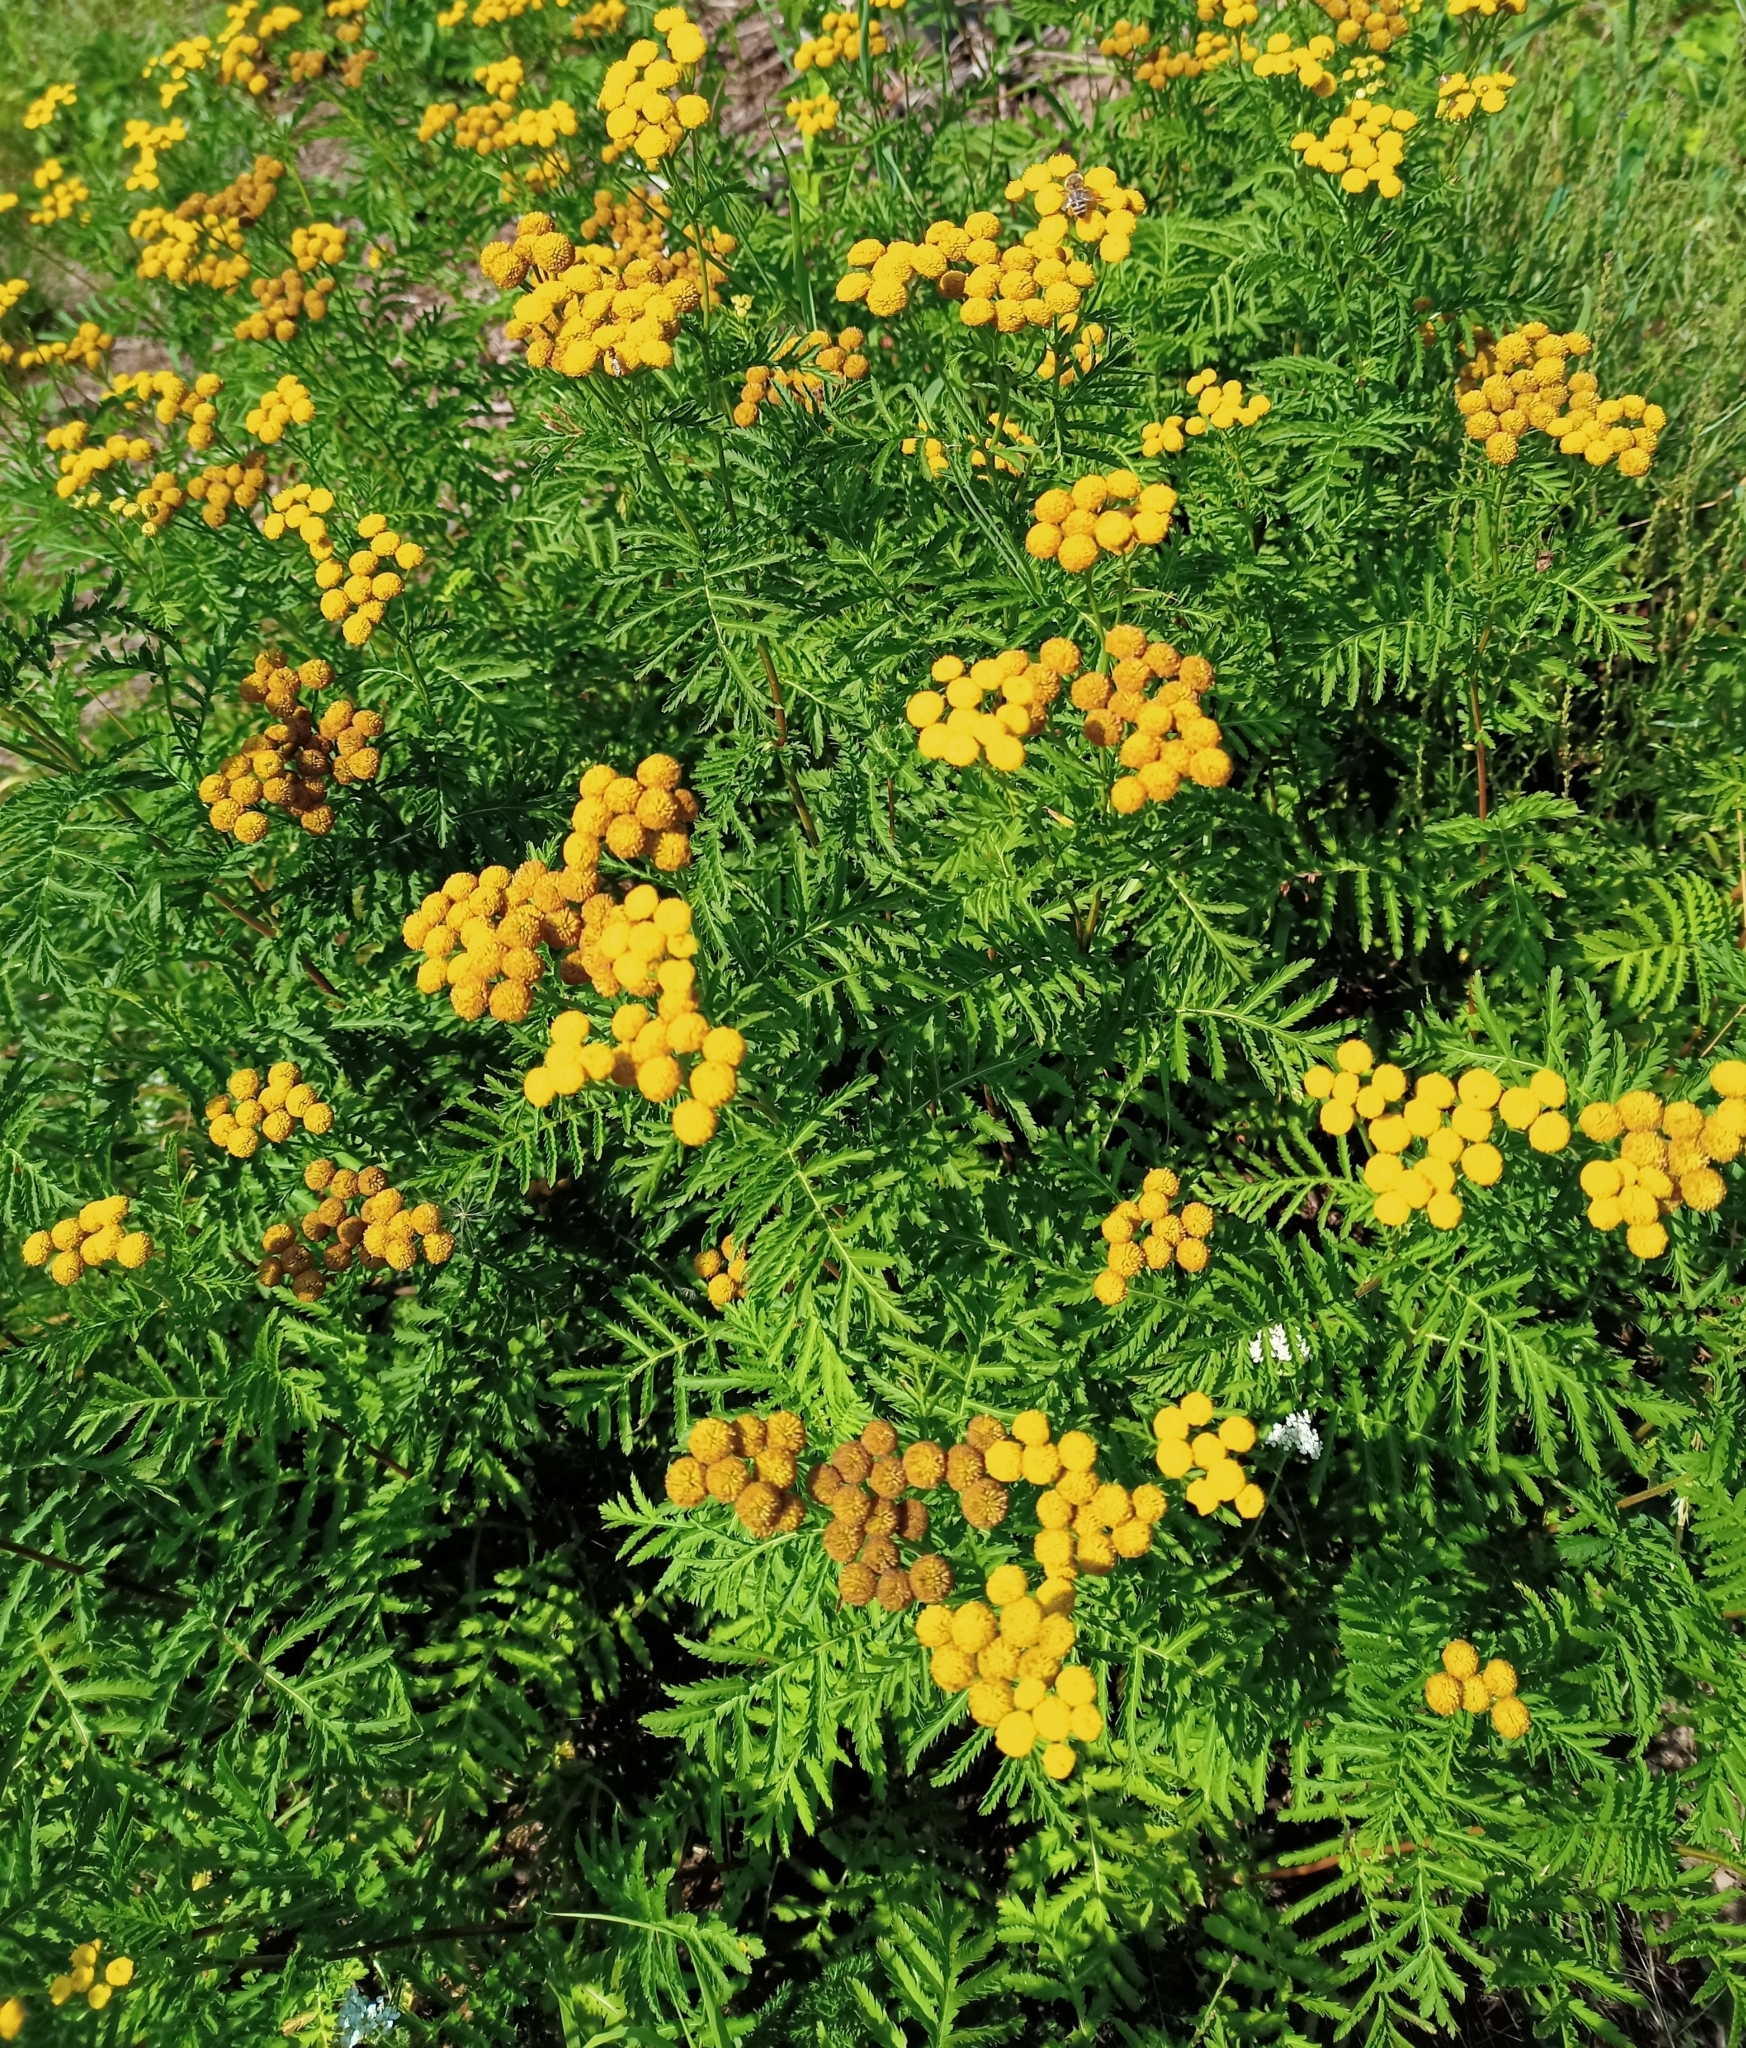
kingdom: Plantae
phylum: Tracheophyta
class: Magnoliopsida
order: Asterales
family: Asteraceae
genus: Tanacetum
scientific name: Tanacetum vulgare
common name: Common tansy
